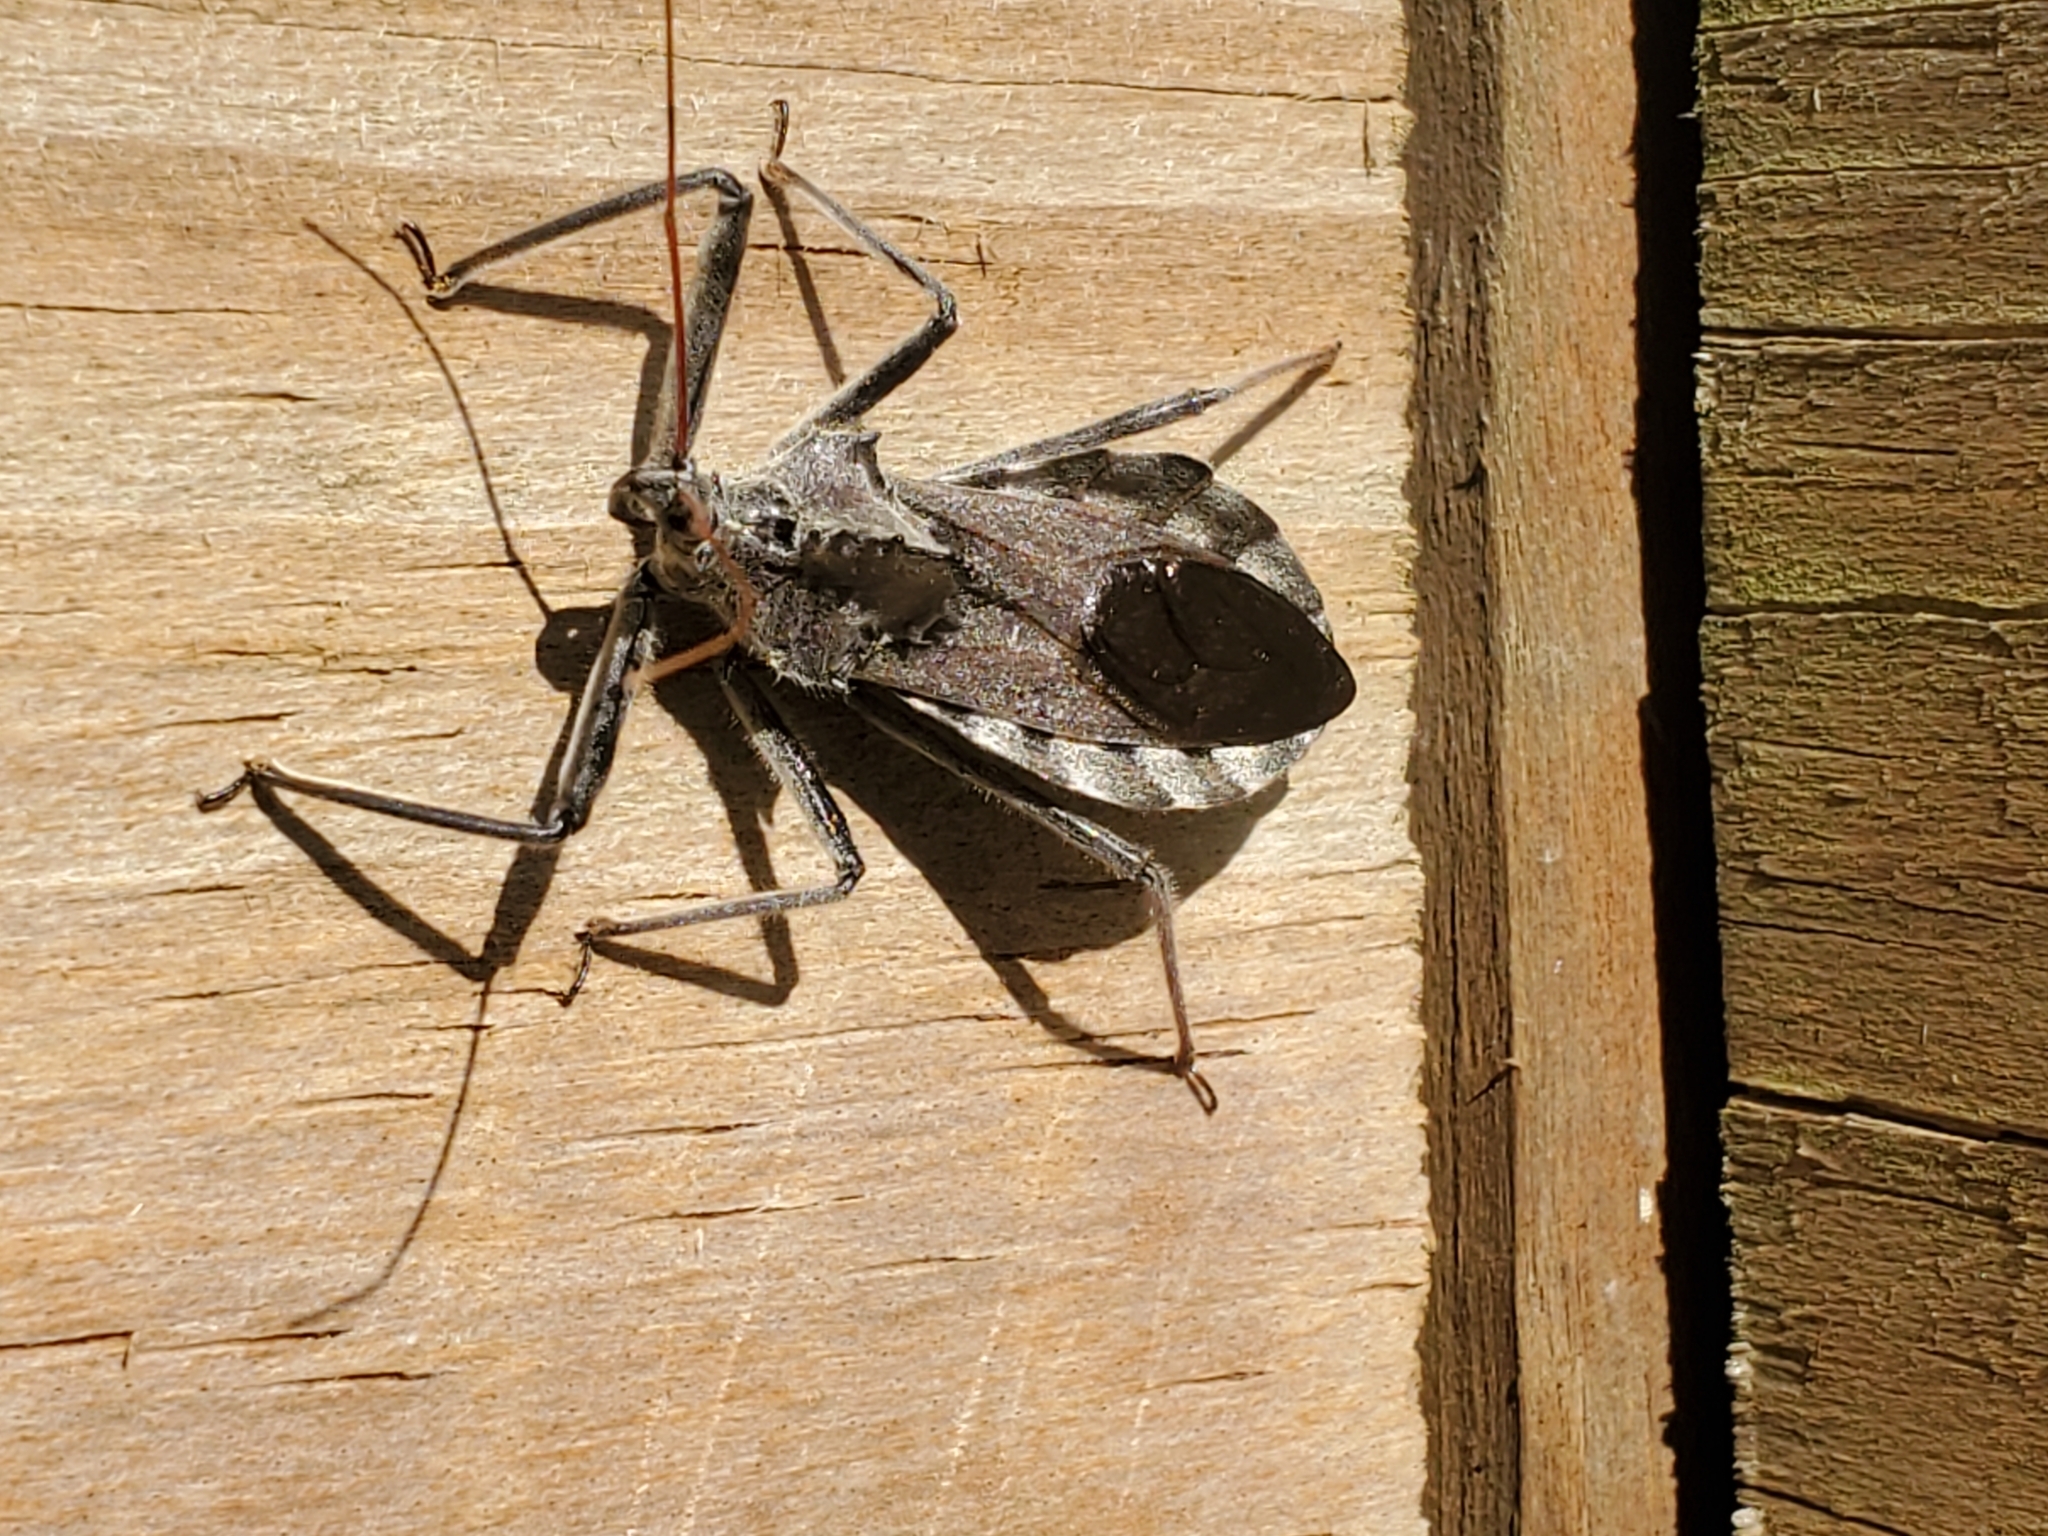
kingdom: Animalia
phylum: Arthropoda
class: Insecta
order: Hemiptera
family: Reduviidae
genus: Arilus
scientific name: Arilus cristatus
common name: North american wheel bug
